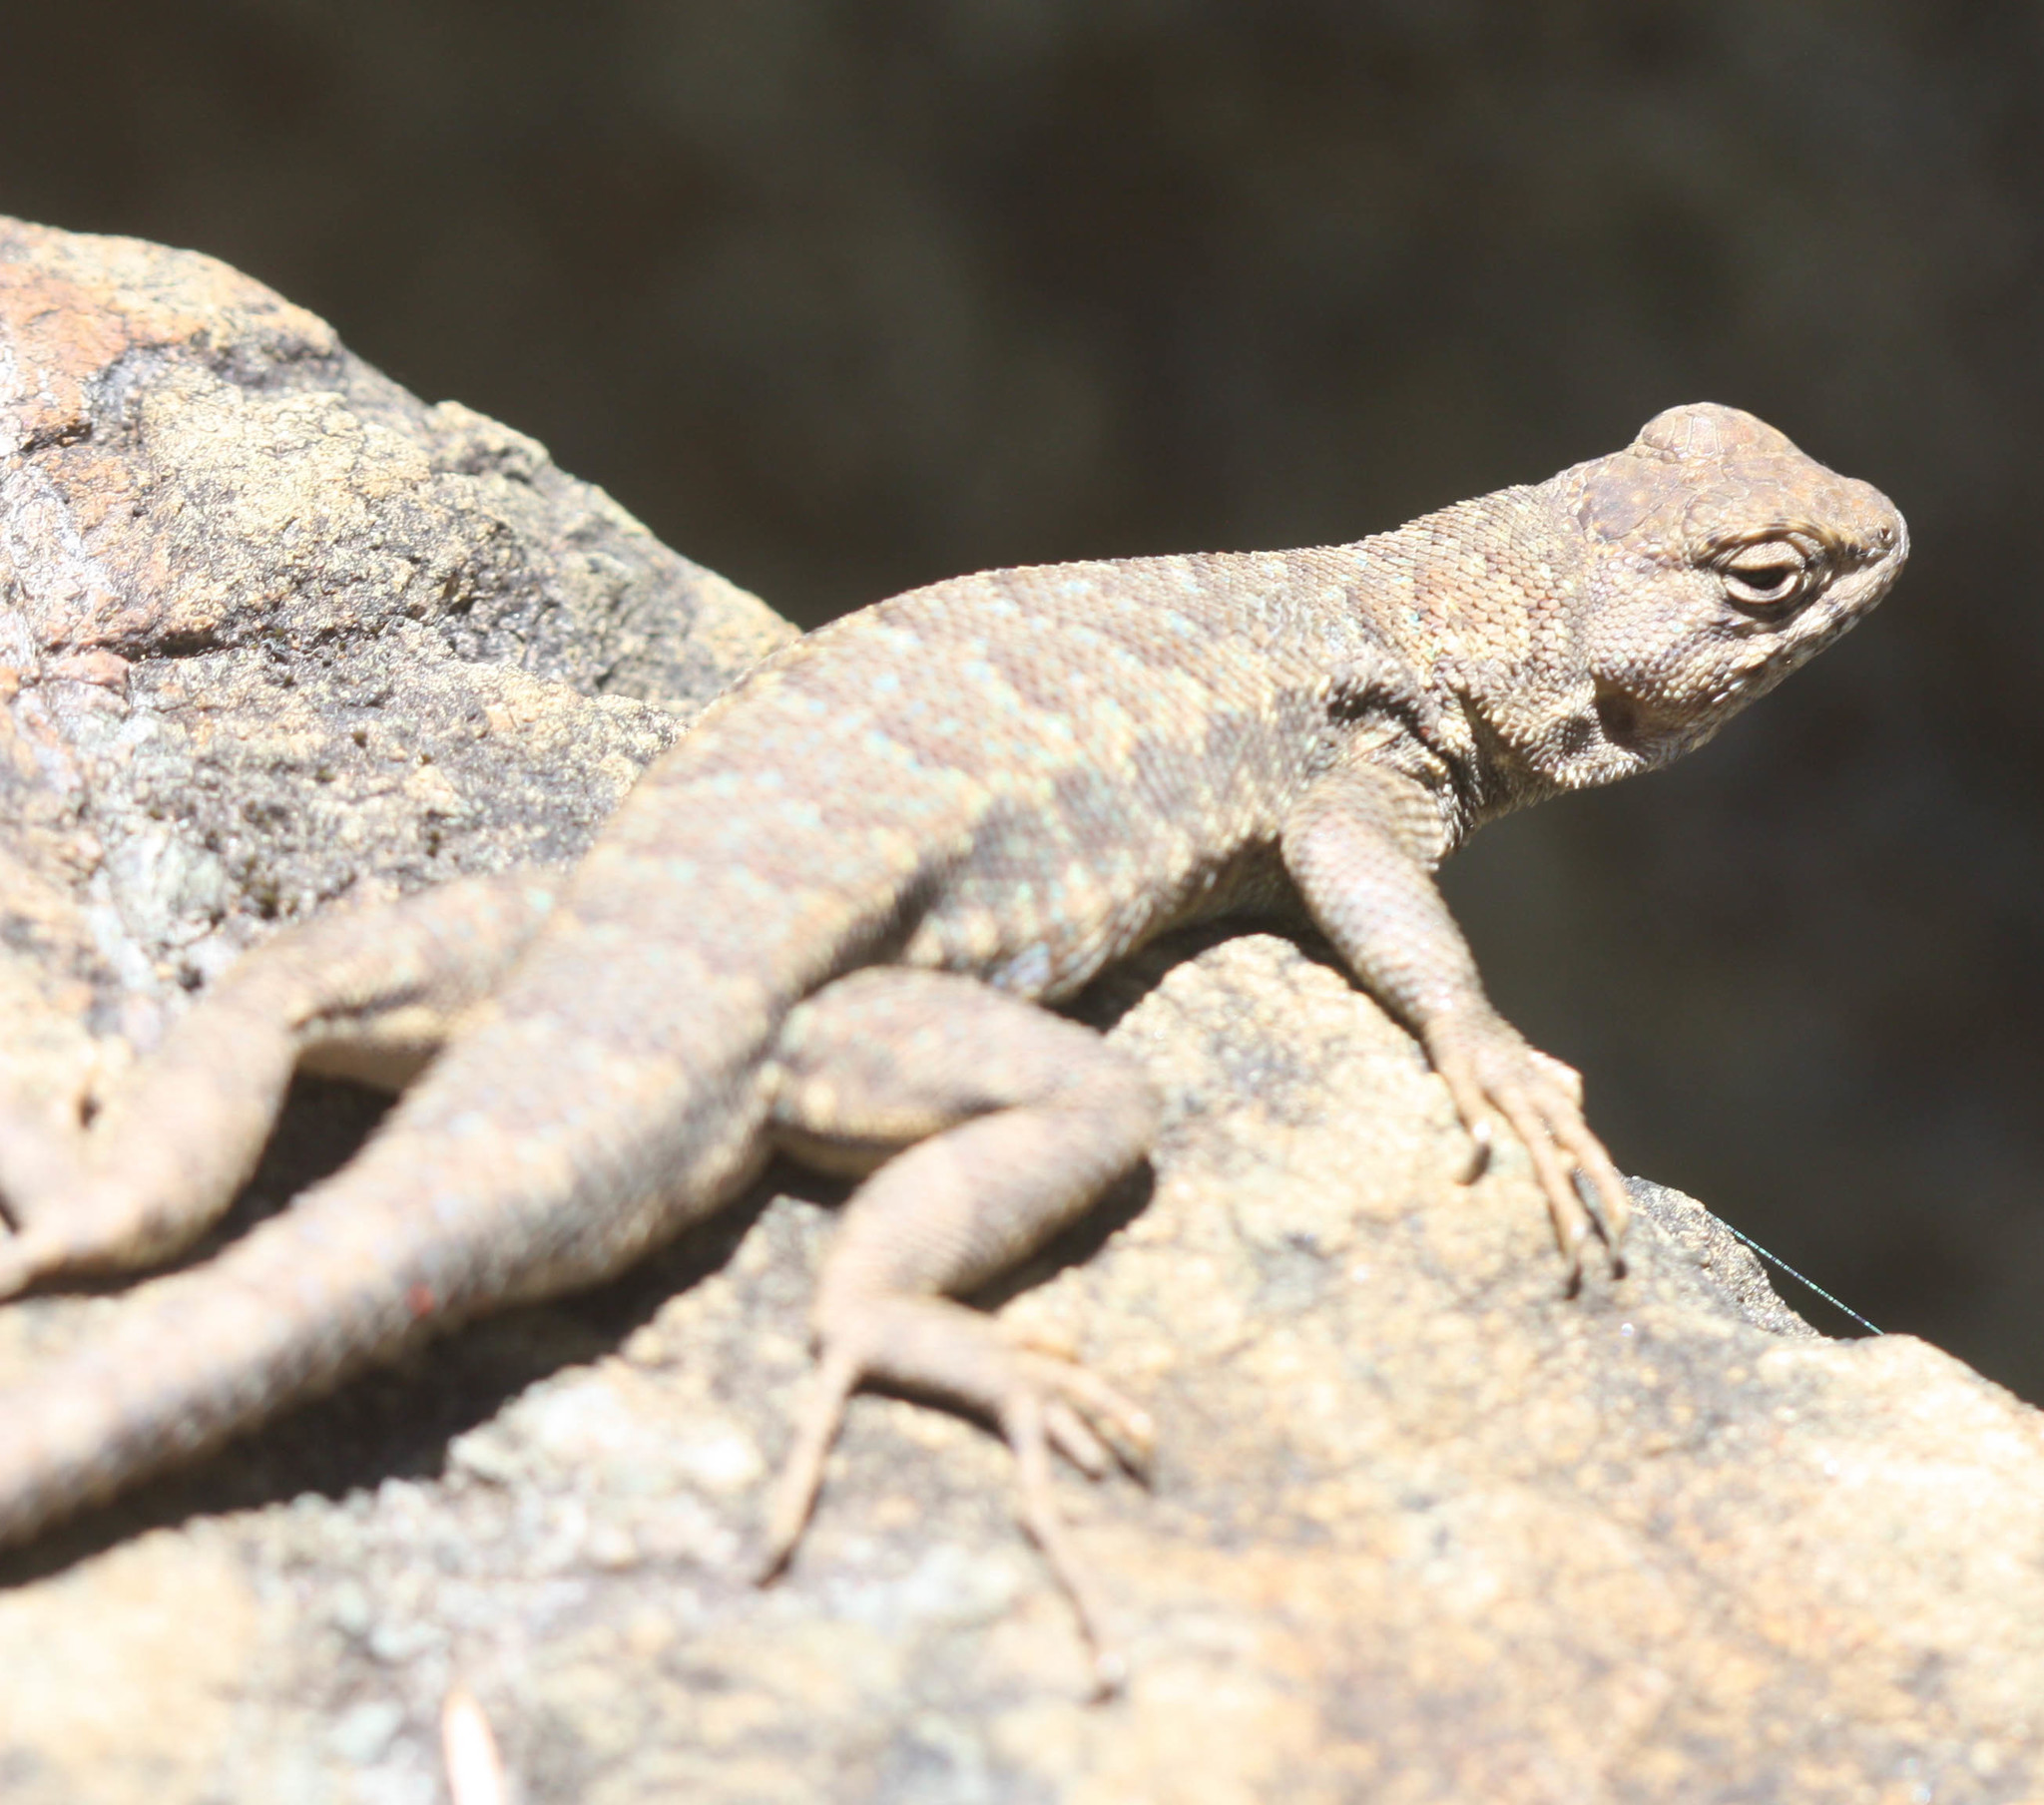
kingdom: Animalia
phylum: Chordata
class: Squamata
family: Phrynosomatidae
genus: Sceloporus
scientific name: Sceloporus graciosus
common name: Sagebrush lizard
